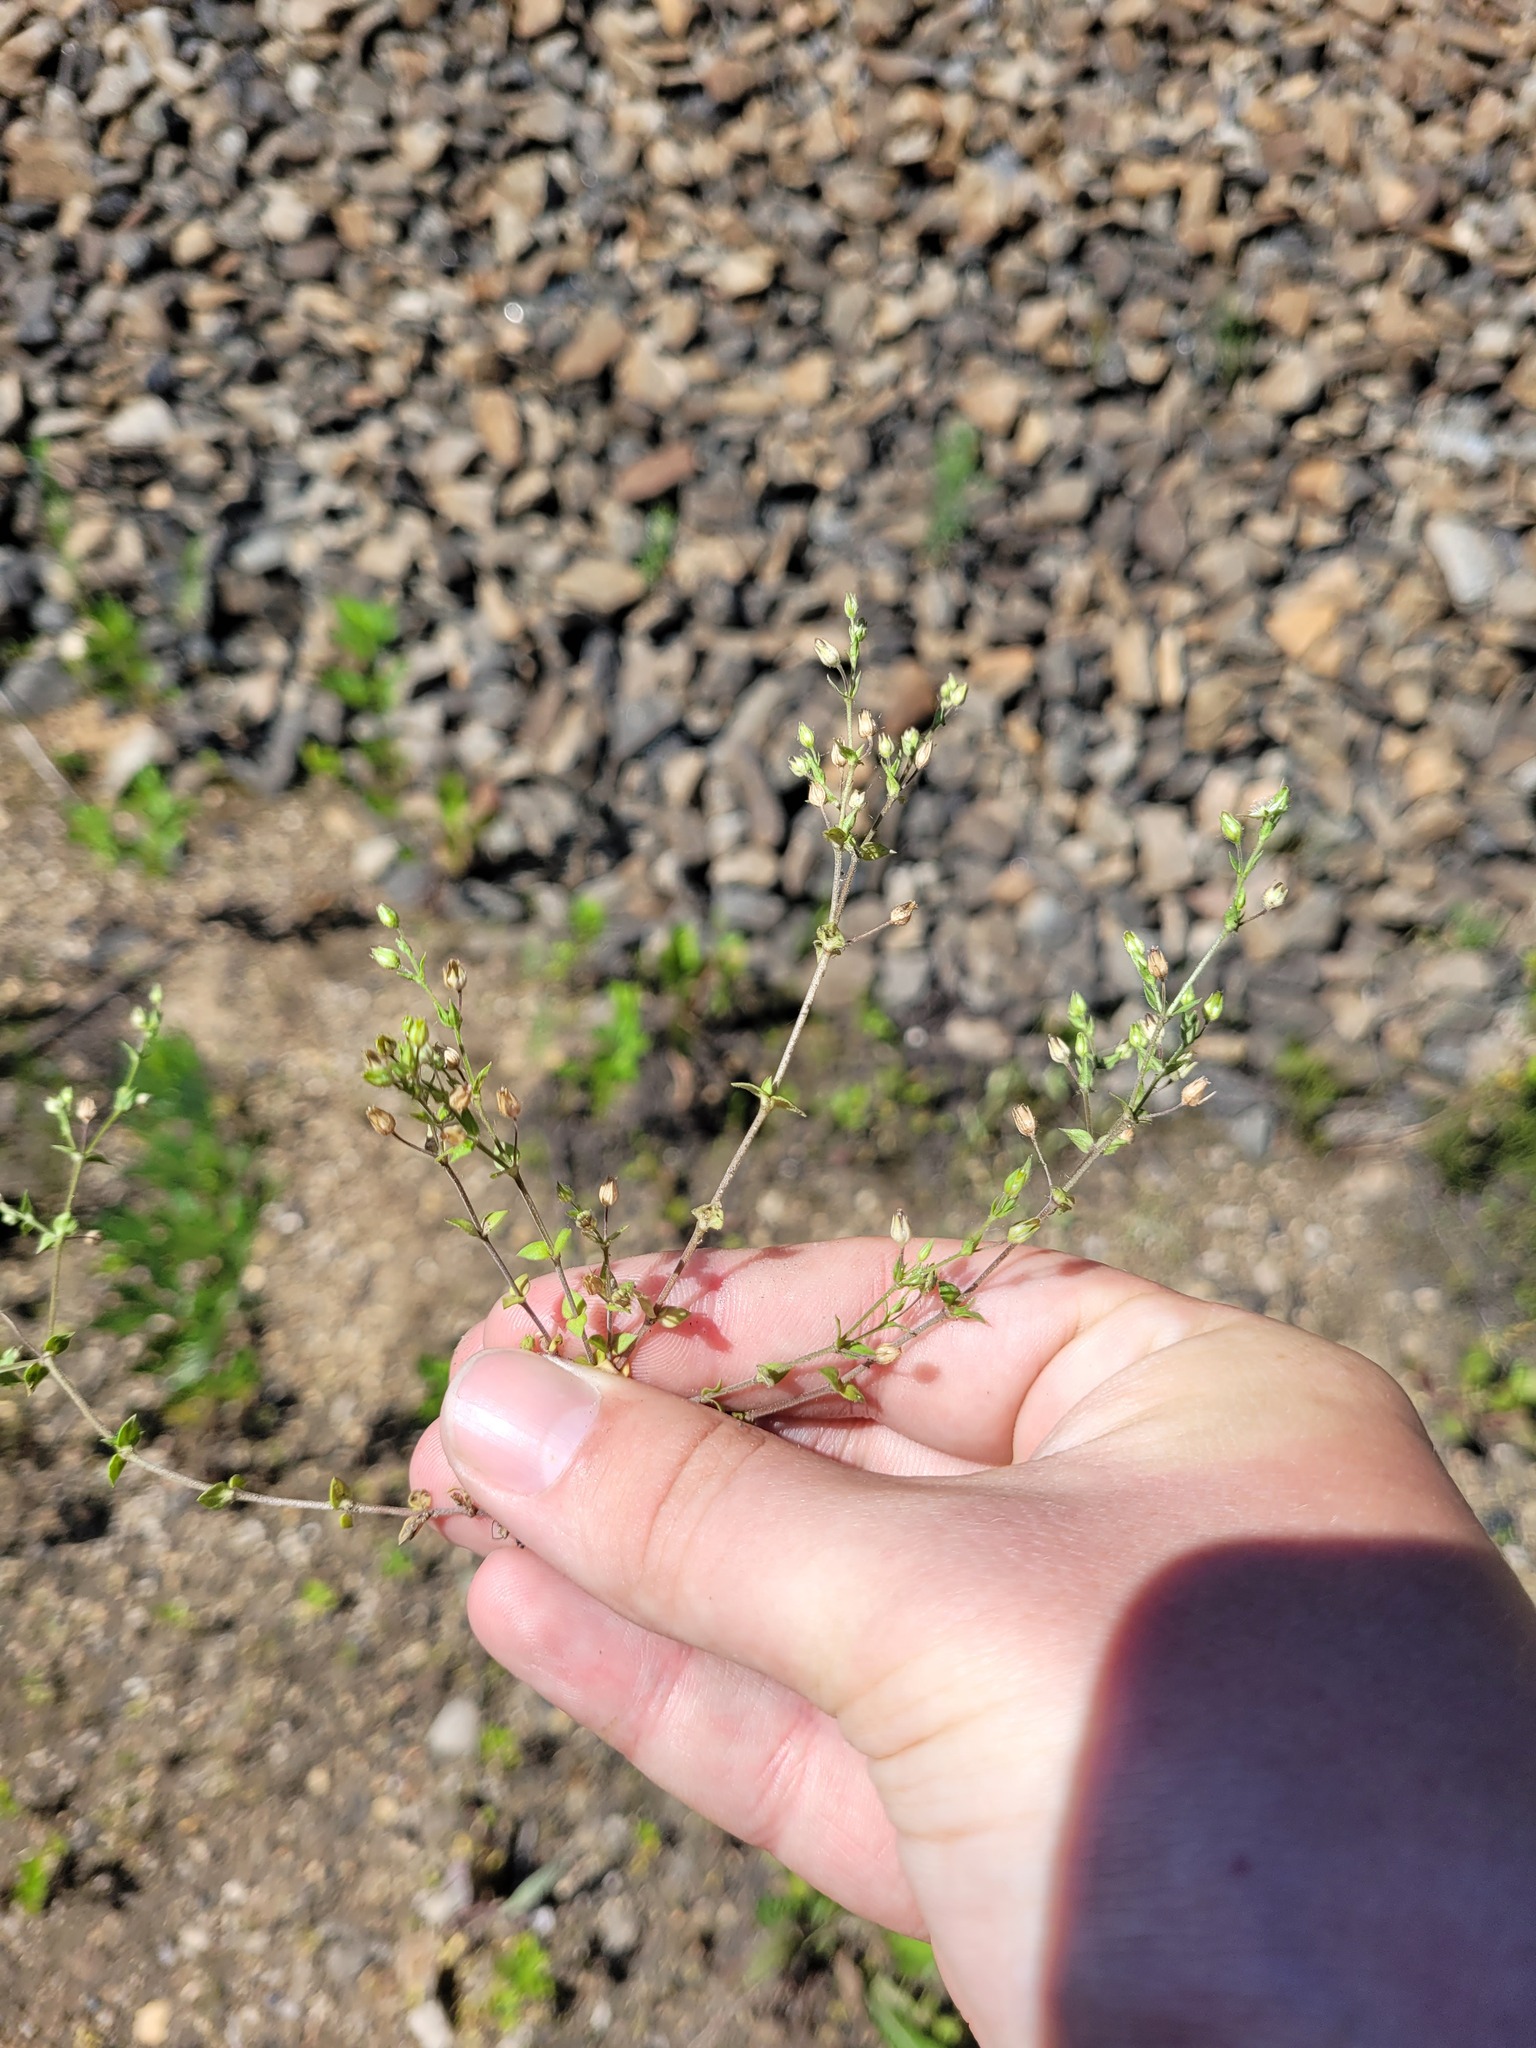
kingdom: Plantae
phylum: Tracheophyta
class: Magnoliopsida
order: Caryophyllales
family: Caryophyllaceae
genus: Arenaria
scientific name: Arenaria serpyllifolia
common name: Thyme-leaved sandwort
